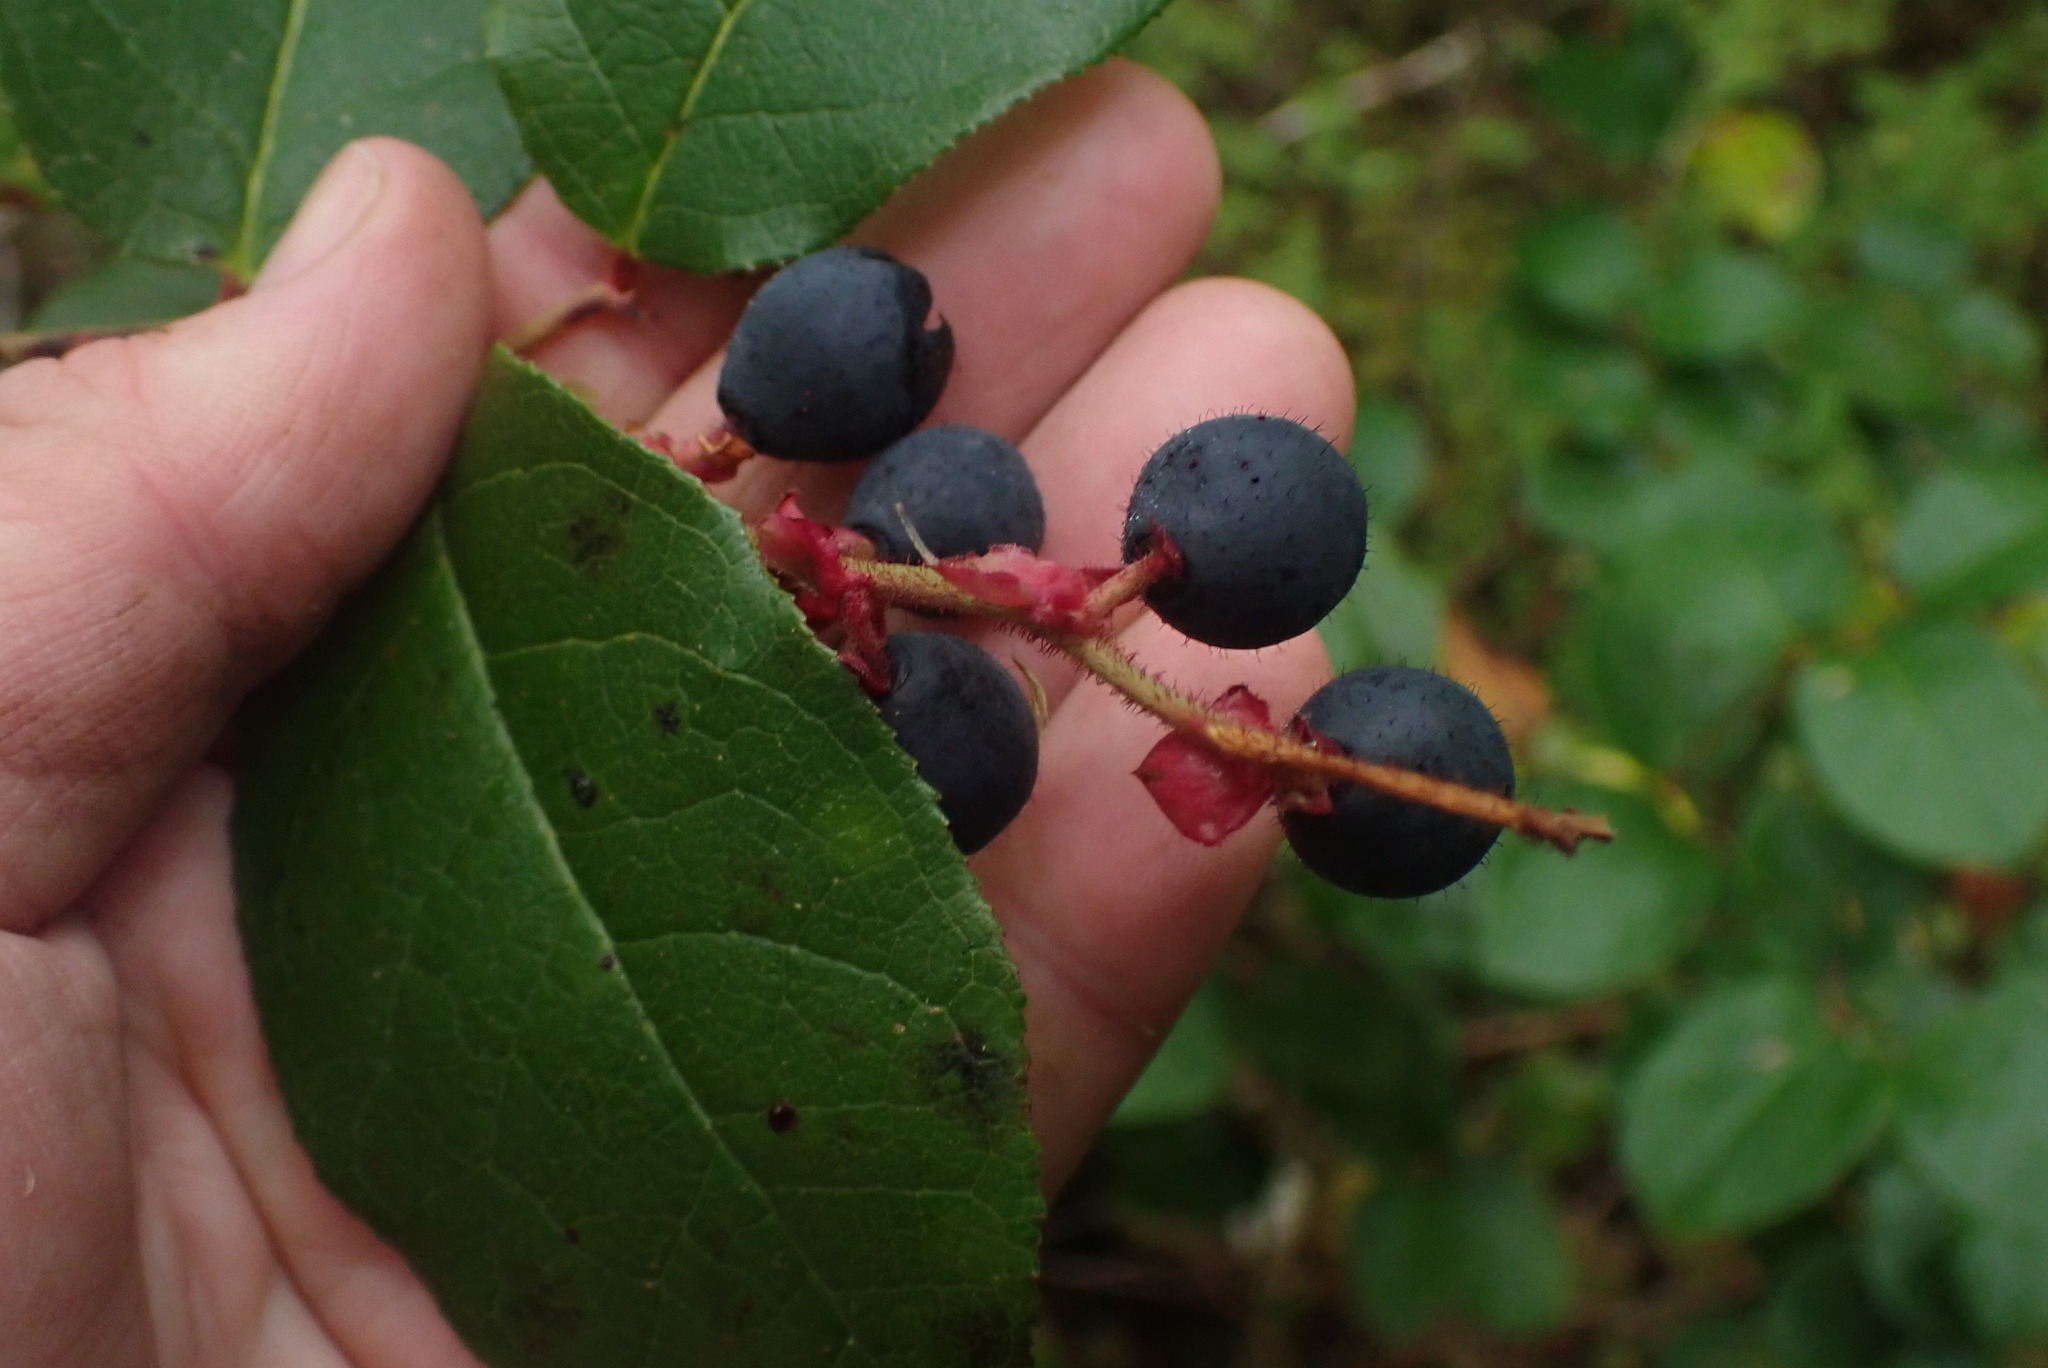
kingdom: Plantae
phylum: Tracheophyta
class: Magnoliopsida
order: Ericales
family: Ericaceae
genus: Gaultheria
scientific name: Gaultheria shallon
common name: Shallon
